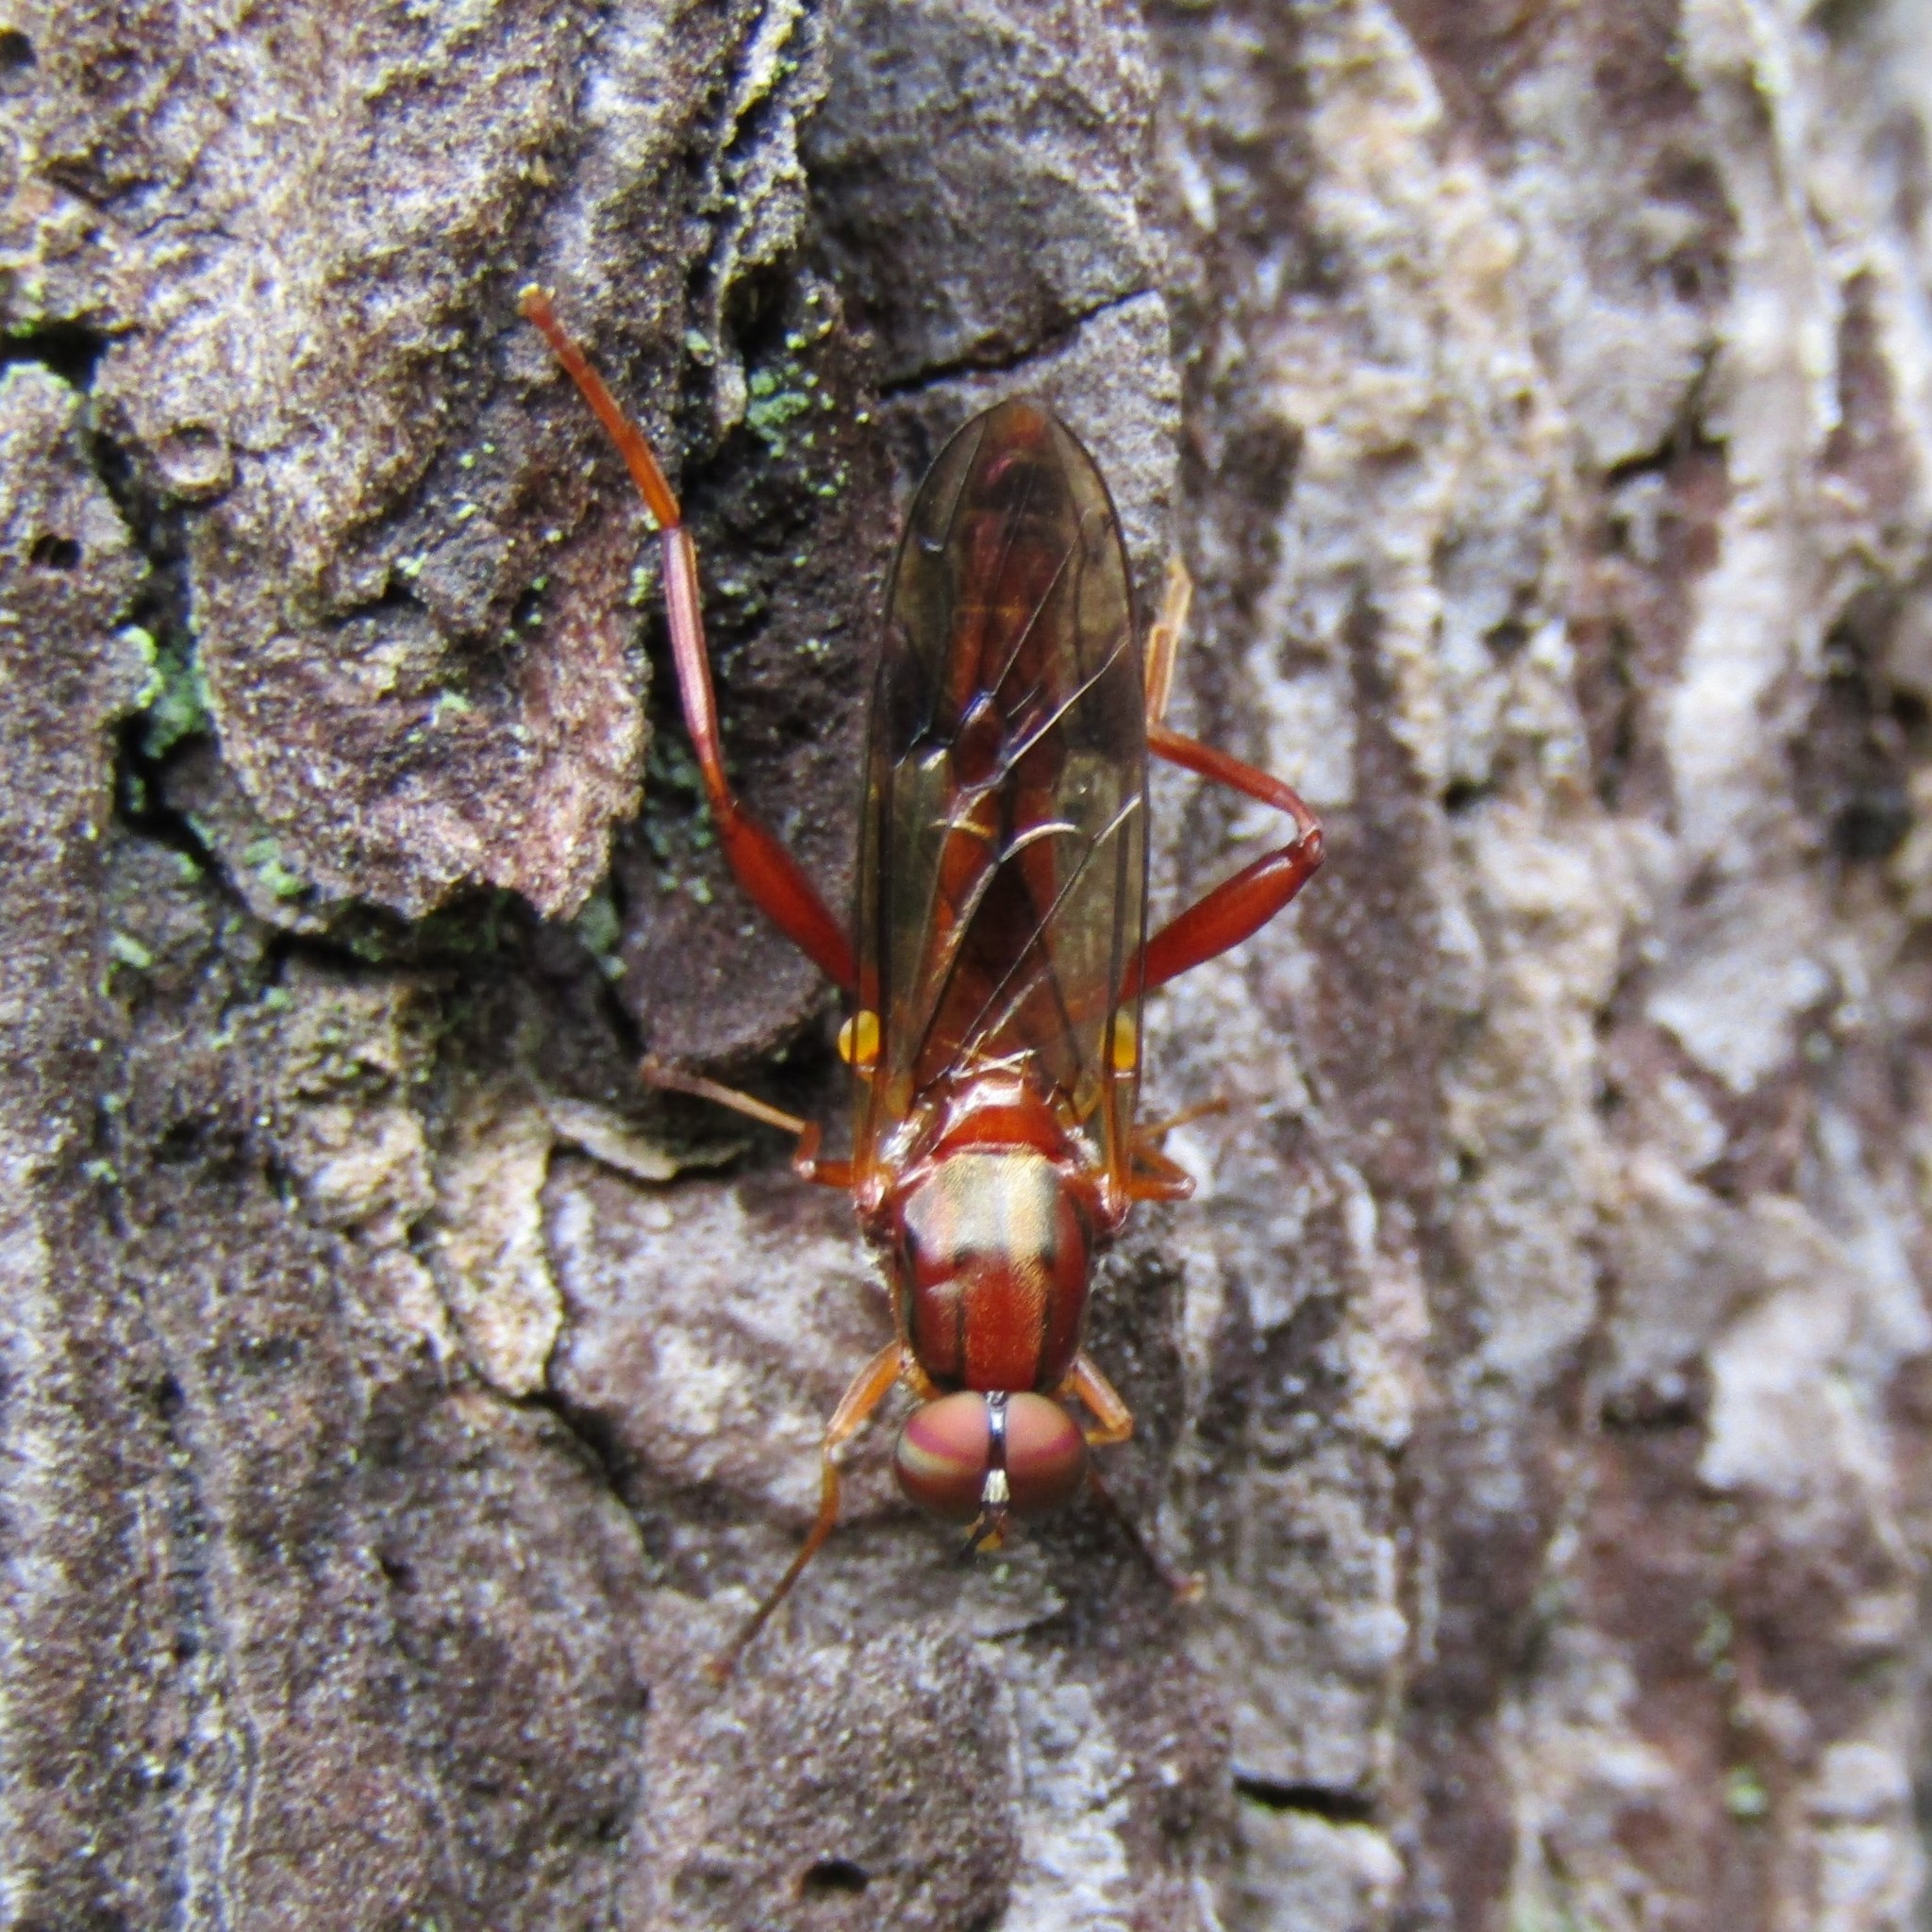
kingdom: Animalia
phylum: Arthropoda
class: Insecta
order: Diptera
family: Stratiomyidae
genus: Benhamyia
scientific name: Benhamyia straznitzkii
